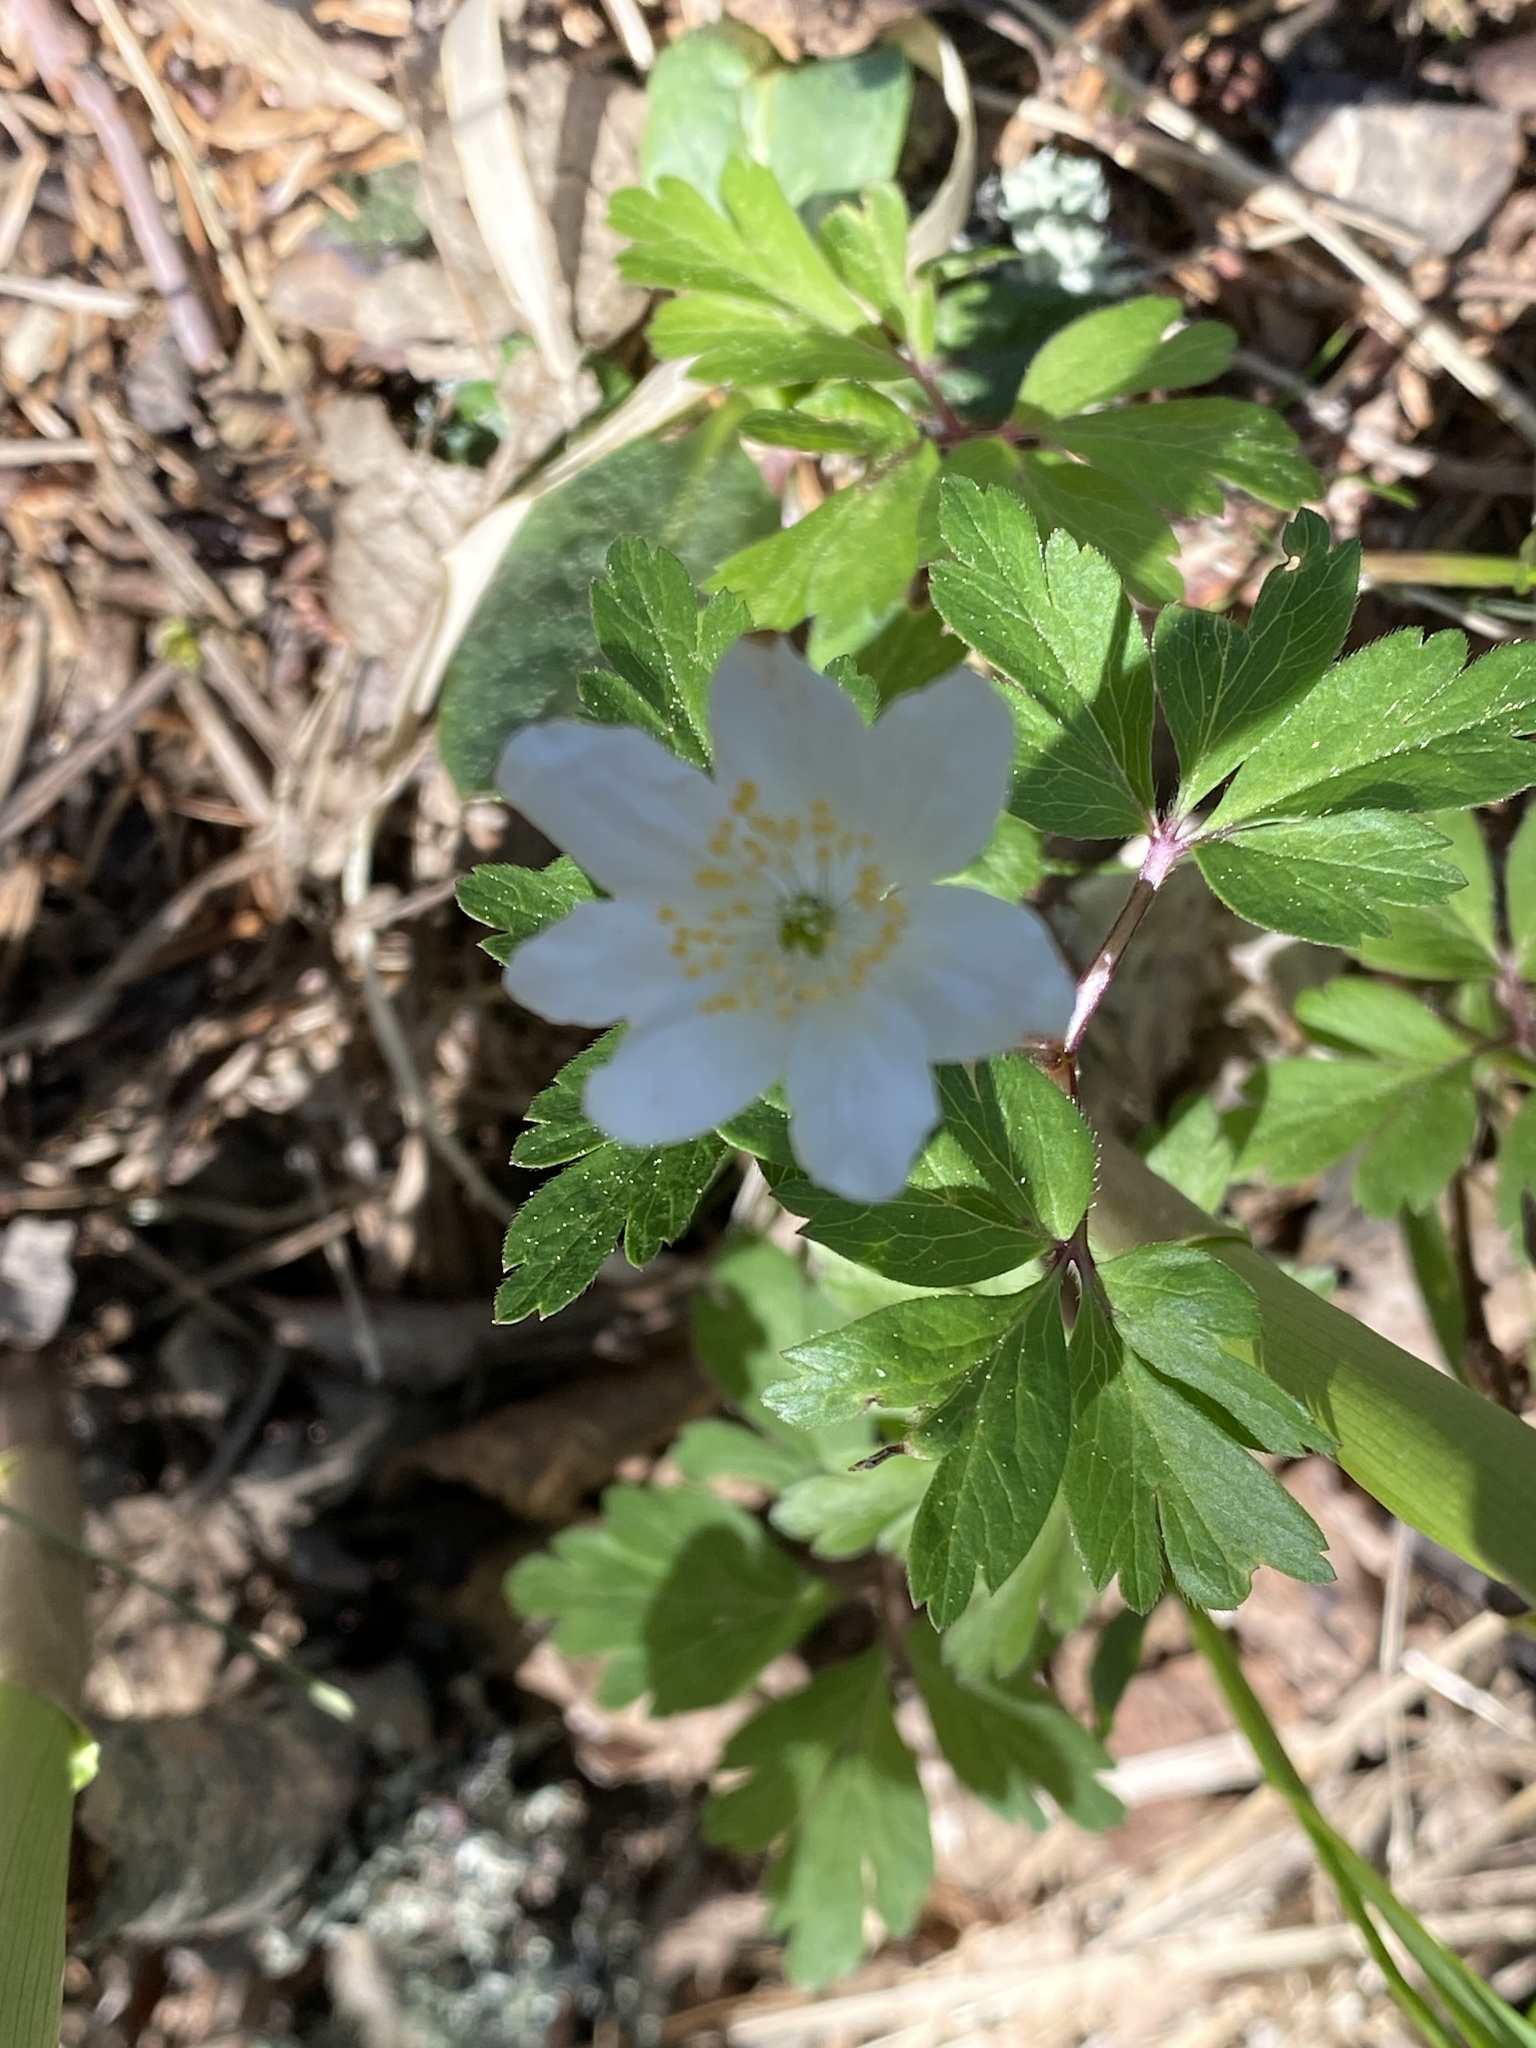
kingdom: Plantae
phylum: Tracheophyta
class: Magnoliopsida
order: Ranunculales
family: Ranunculaceae
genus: Anemone
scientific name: Anemone nemorosa
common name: Wood anemone
